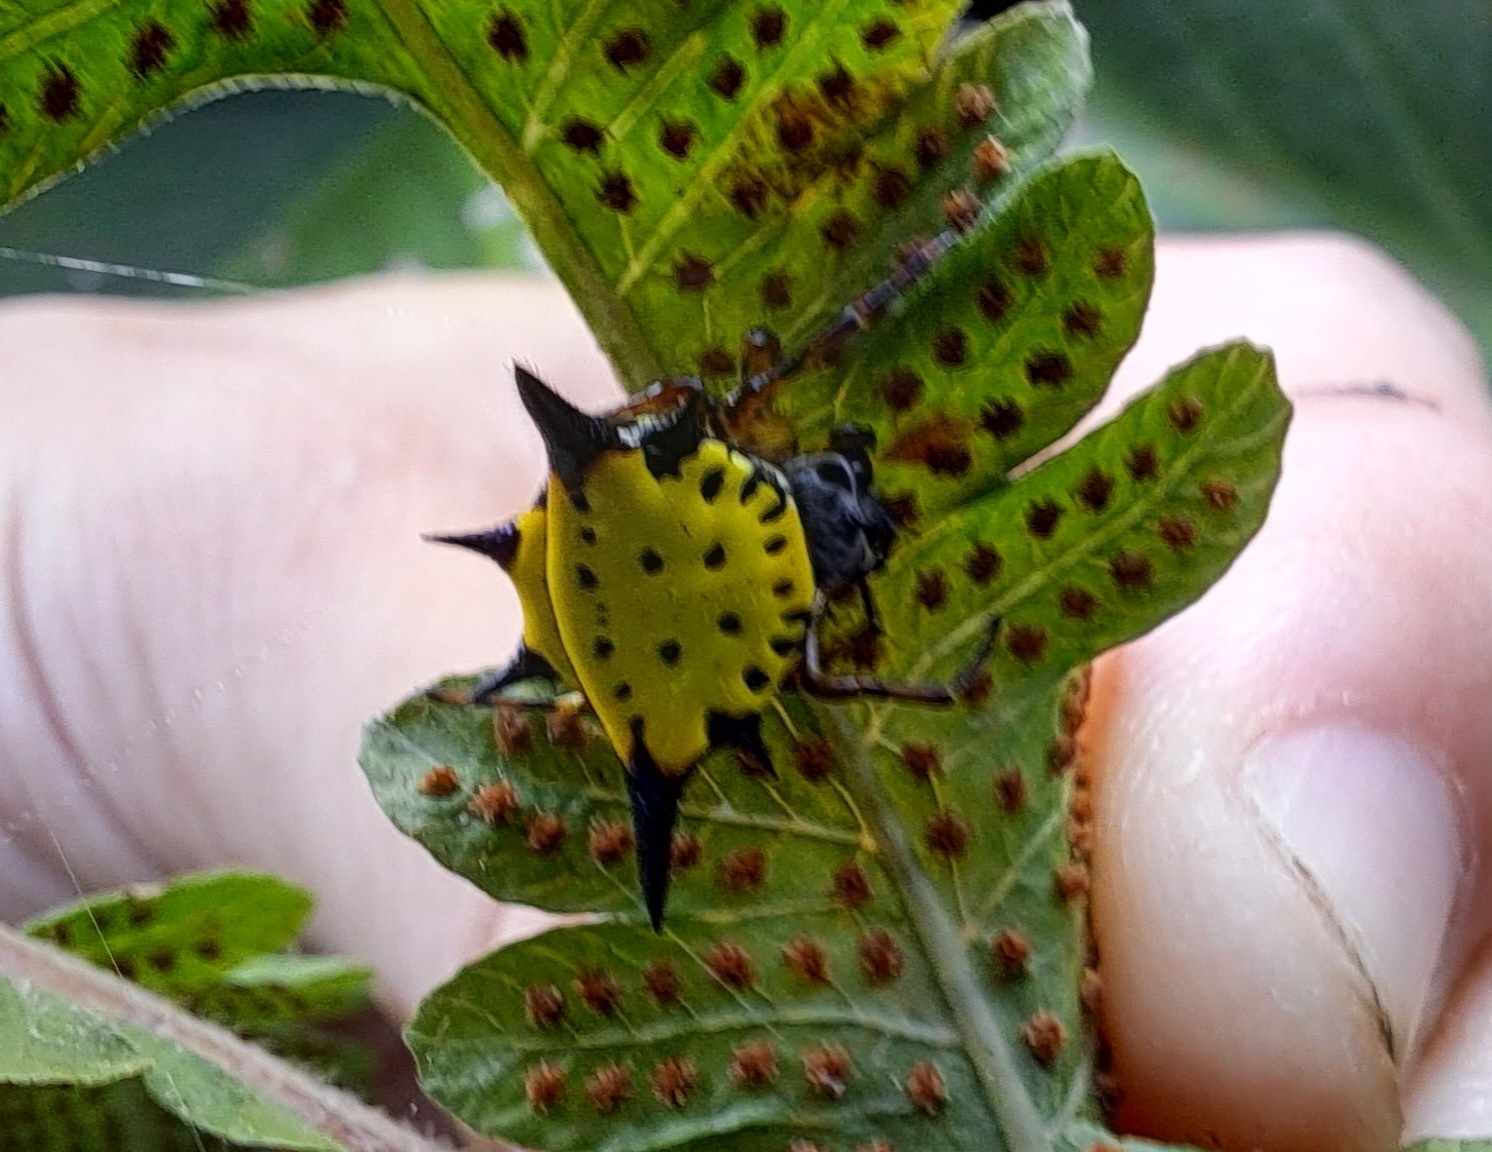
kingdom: Animalia
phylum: Arthropoda
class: Arachnida
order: Araneae
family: Araneidae
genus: Macracantha
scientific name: Macracantha hasselti
